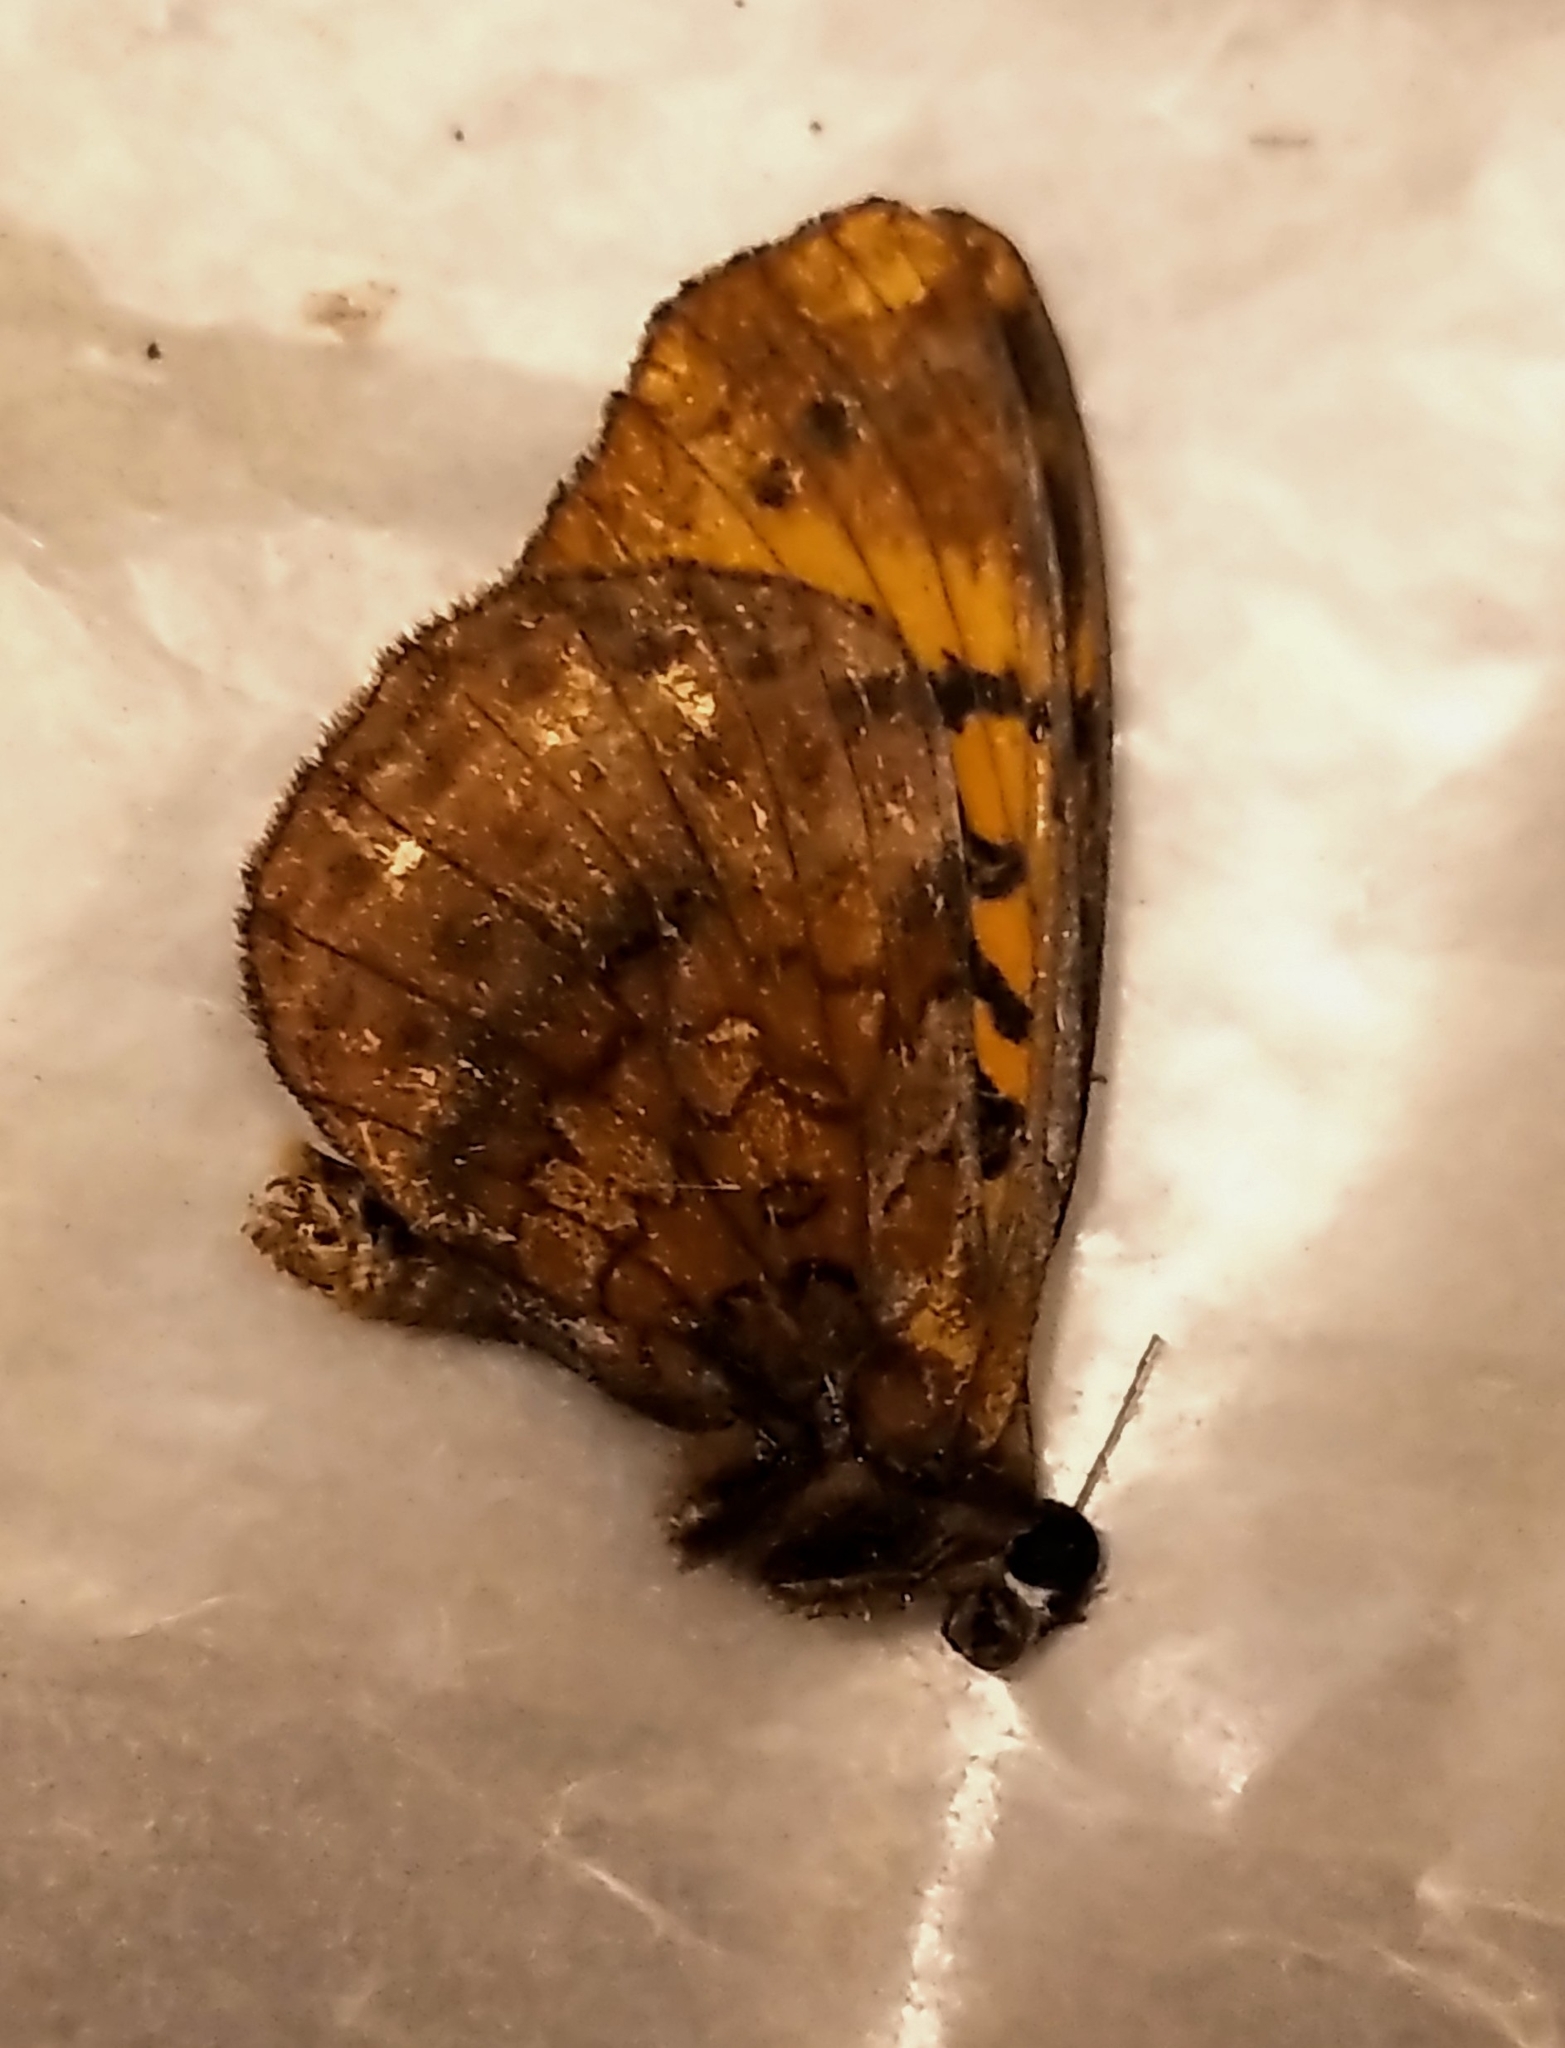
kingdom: Animalia
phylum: Arthropoda
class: Insecta
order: Lepidoptera
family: Nymphalidae
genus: Clossiana
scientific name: Clossiana toddi
